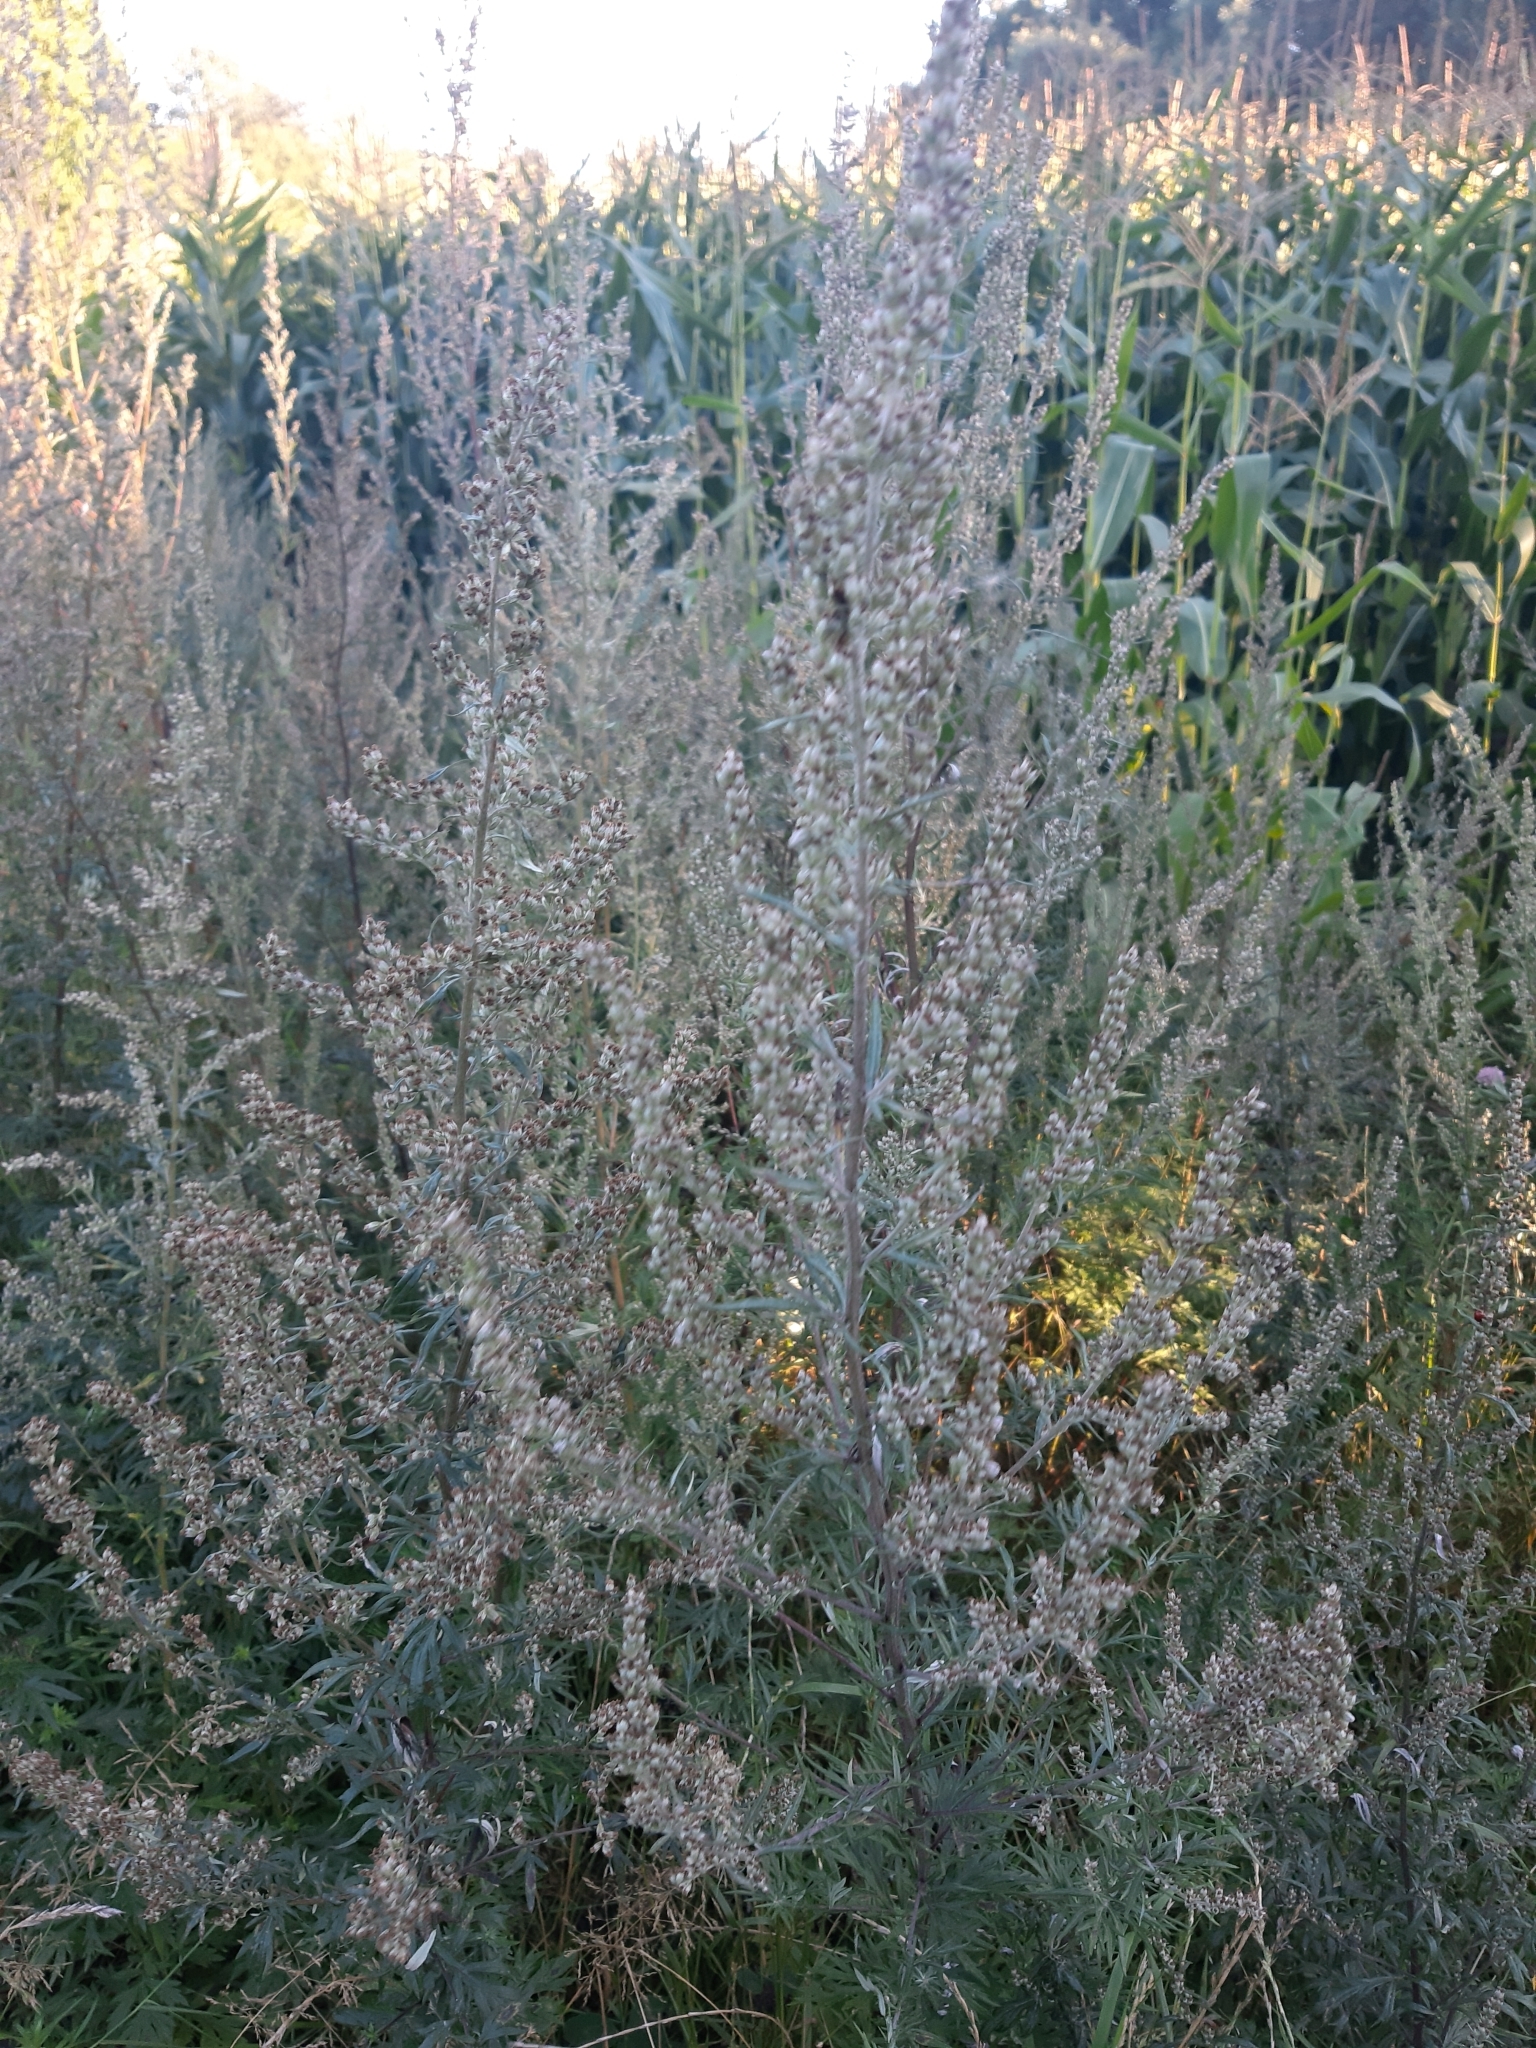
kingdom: Plantae
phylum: Tracheophyta
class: Magnoliopsida
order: Asterales
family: Asteraceae
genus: Artemisia
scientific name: Artemisia vulgaris
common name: Mugwort
